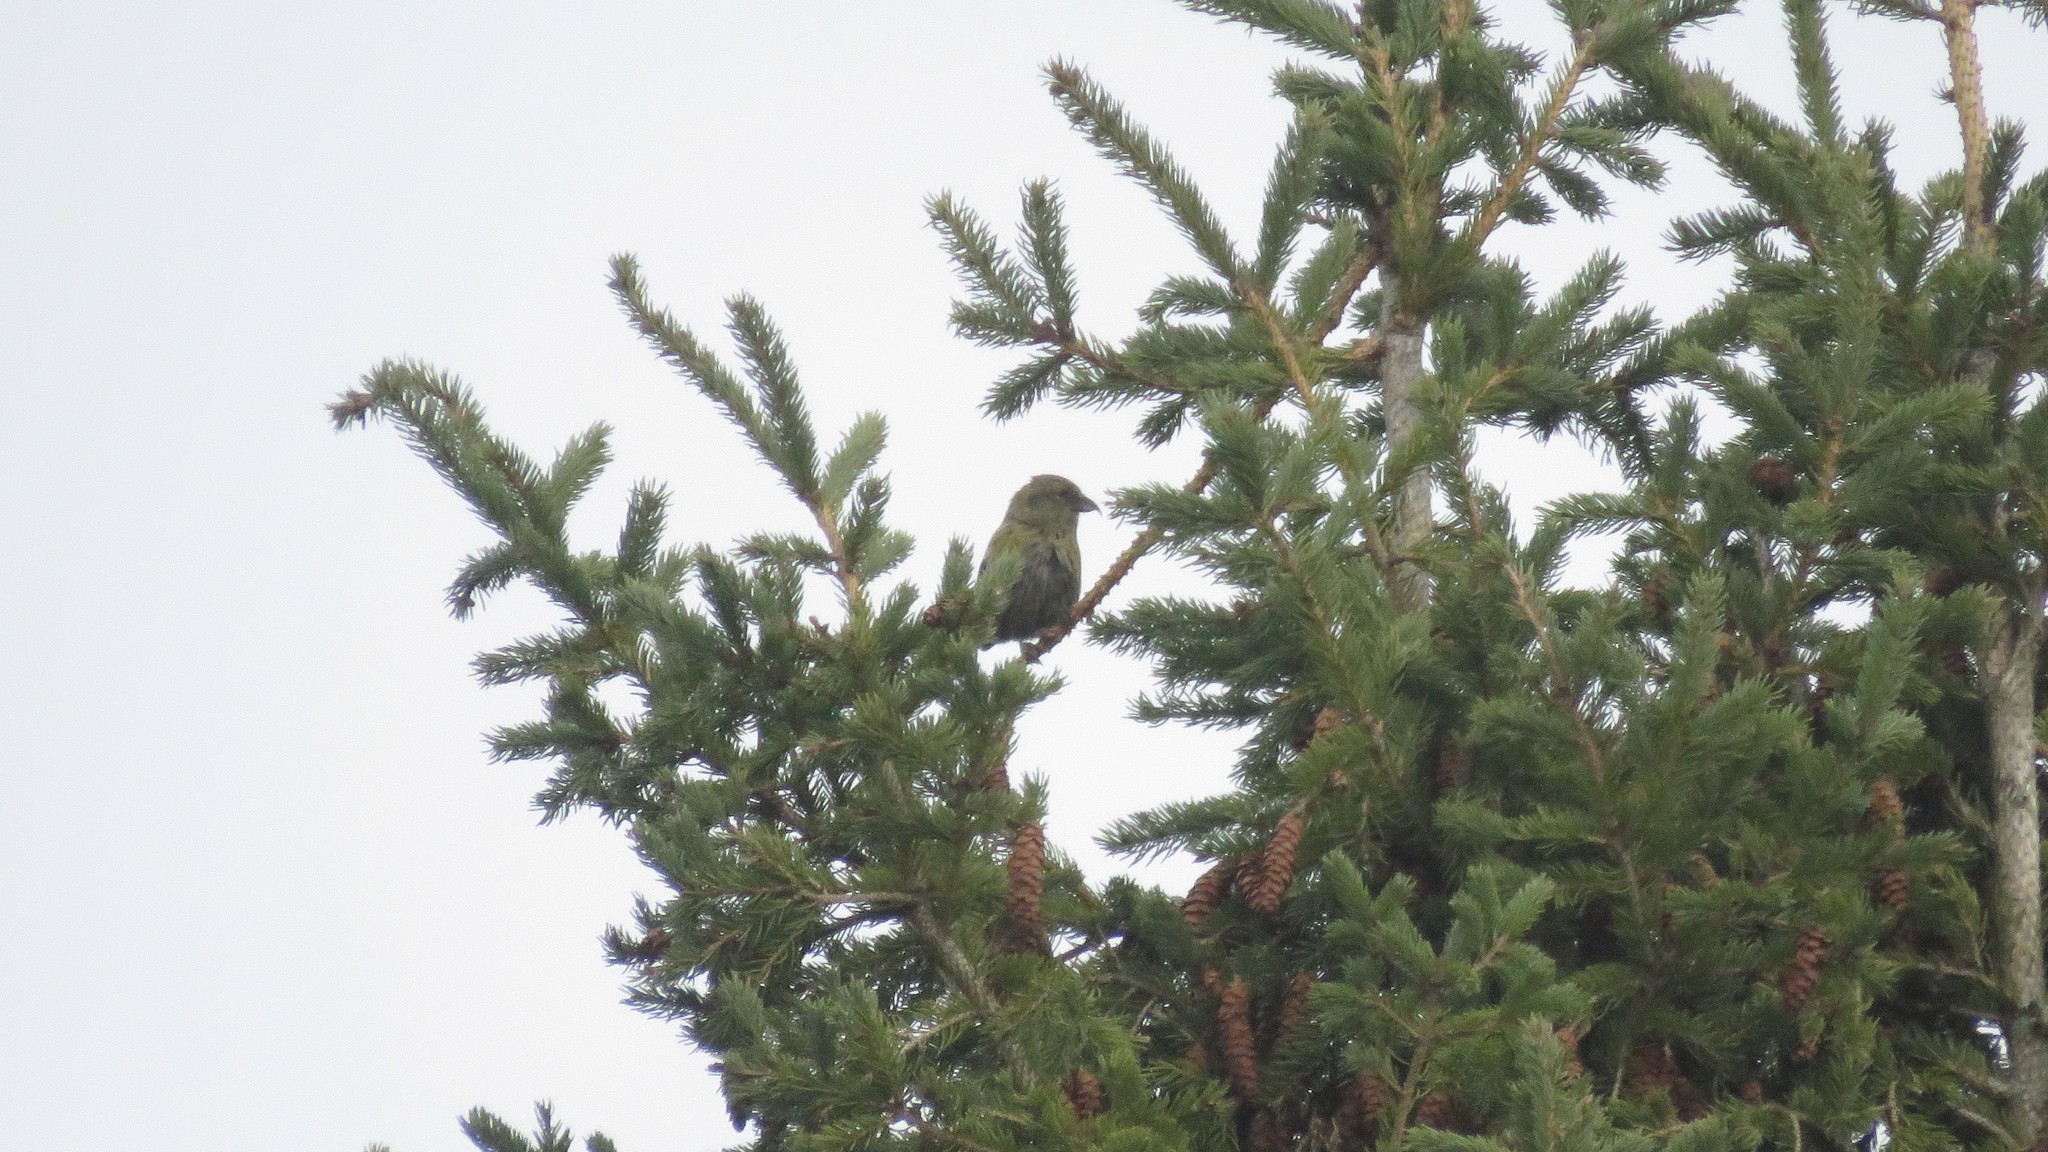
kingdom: Animalia
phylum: Chordata
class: Aves
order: Passeriformes
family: Fringillidae
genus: Loxia
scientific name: Loxia leucoptera
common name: Two-barred crossbill
